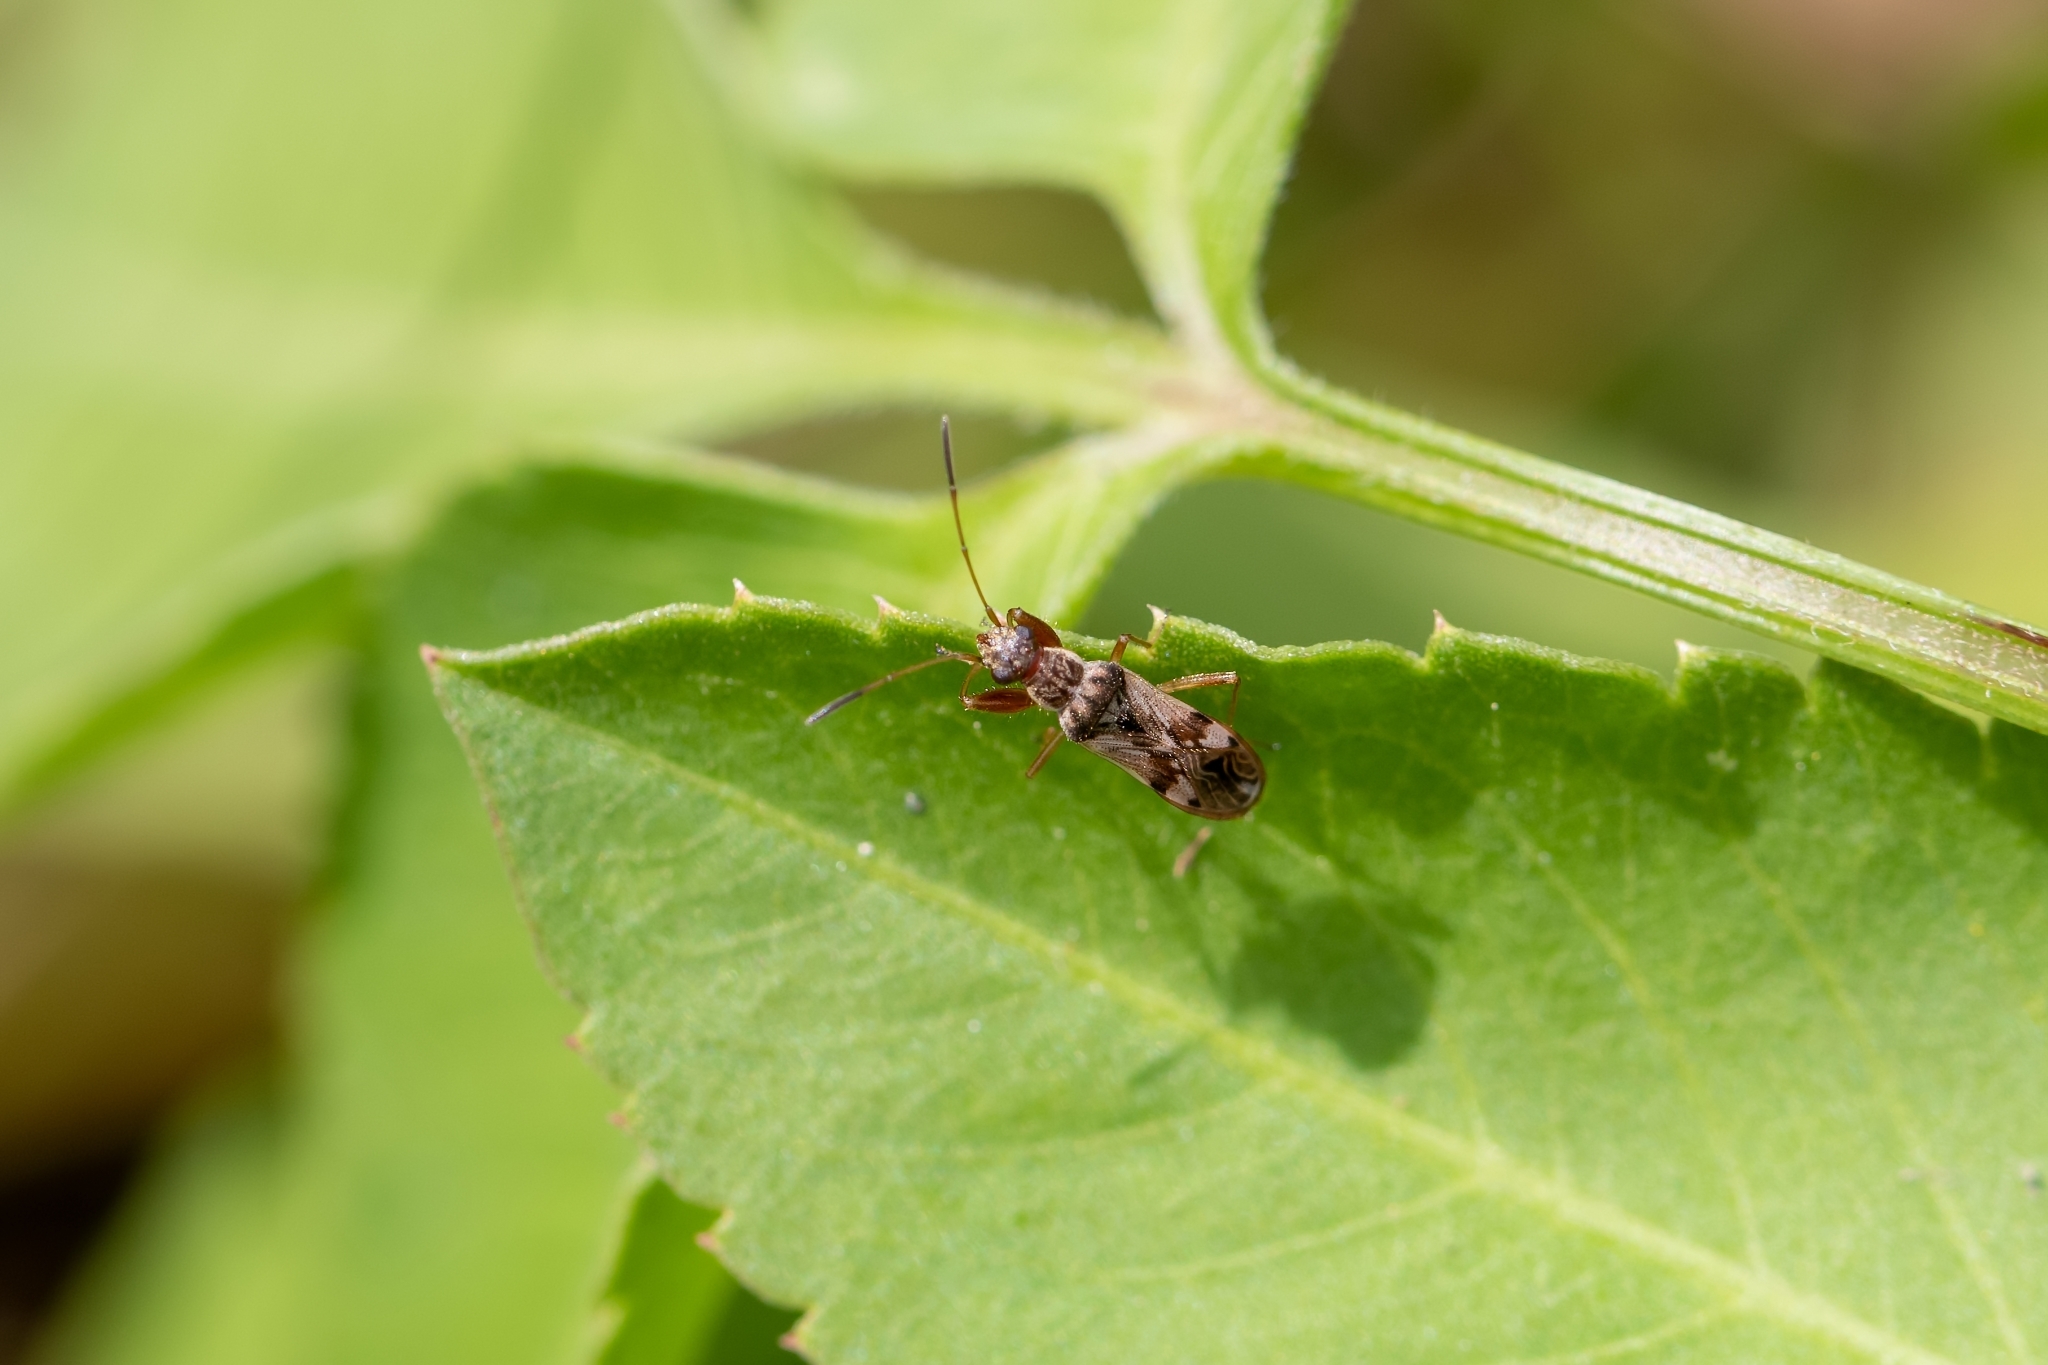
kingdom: Animalia
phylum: Arthropoda
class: Insecta
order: Hemiptera
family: Rhyparochromidae
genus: Neopamera
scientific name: Neopamera bilobata
